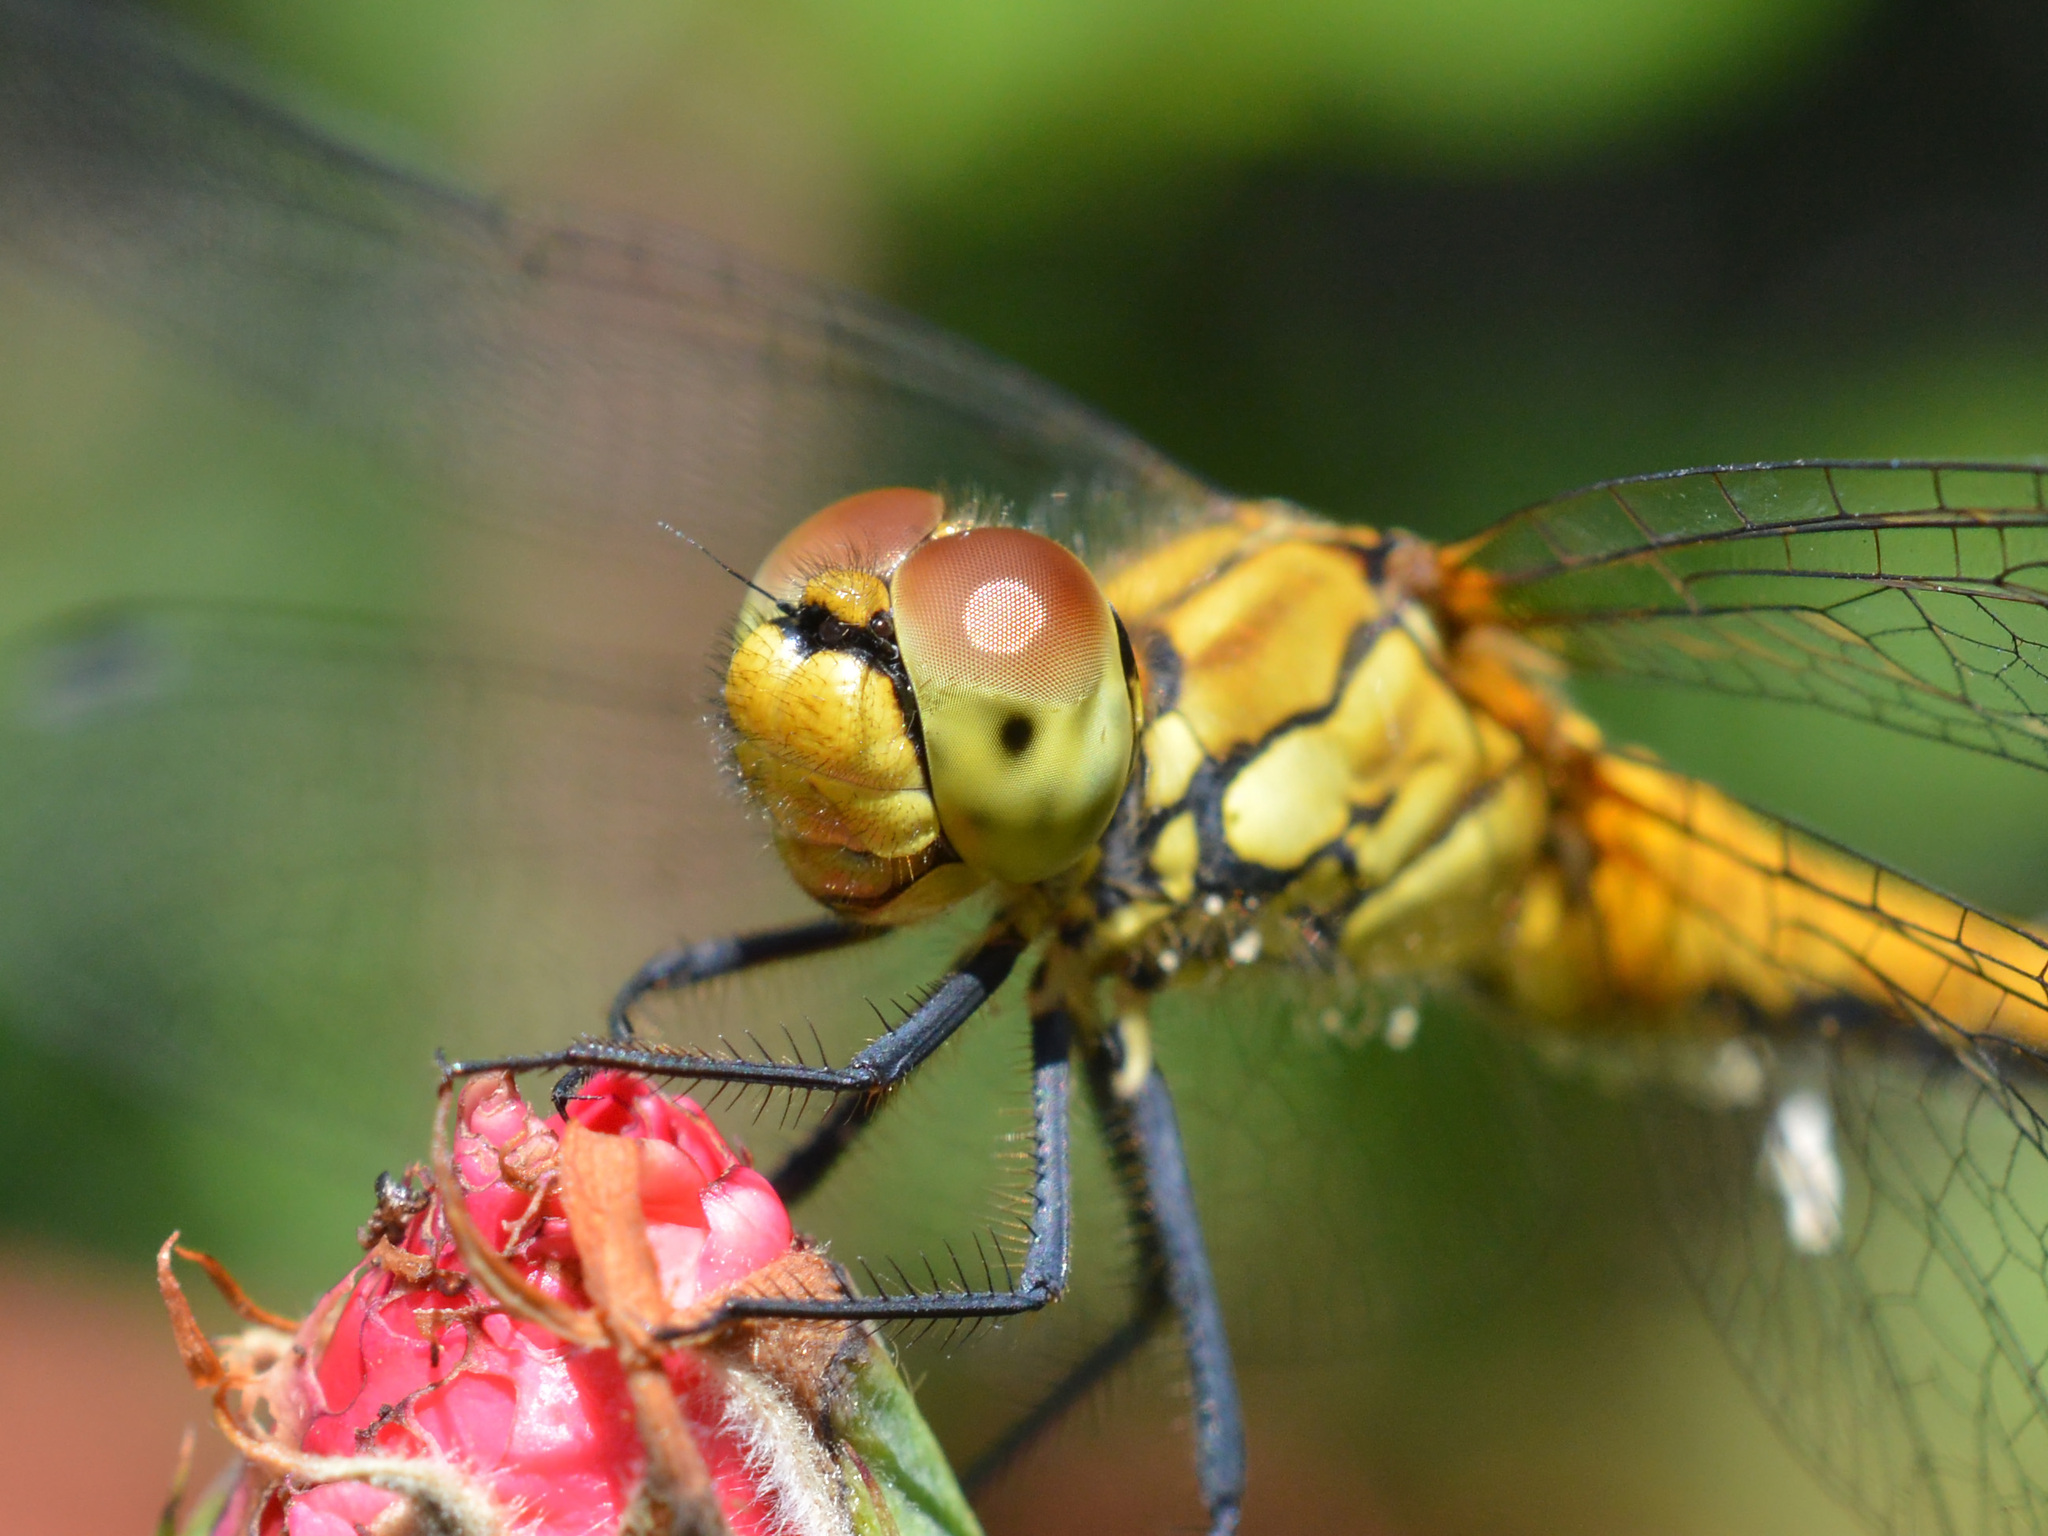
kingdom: Animalia
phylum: Arthropoda
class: Insecta
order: Odonata
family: Libellulidae
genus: Sympetrum
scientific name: Sympetrum sanguineum
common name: Ruddy darter
